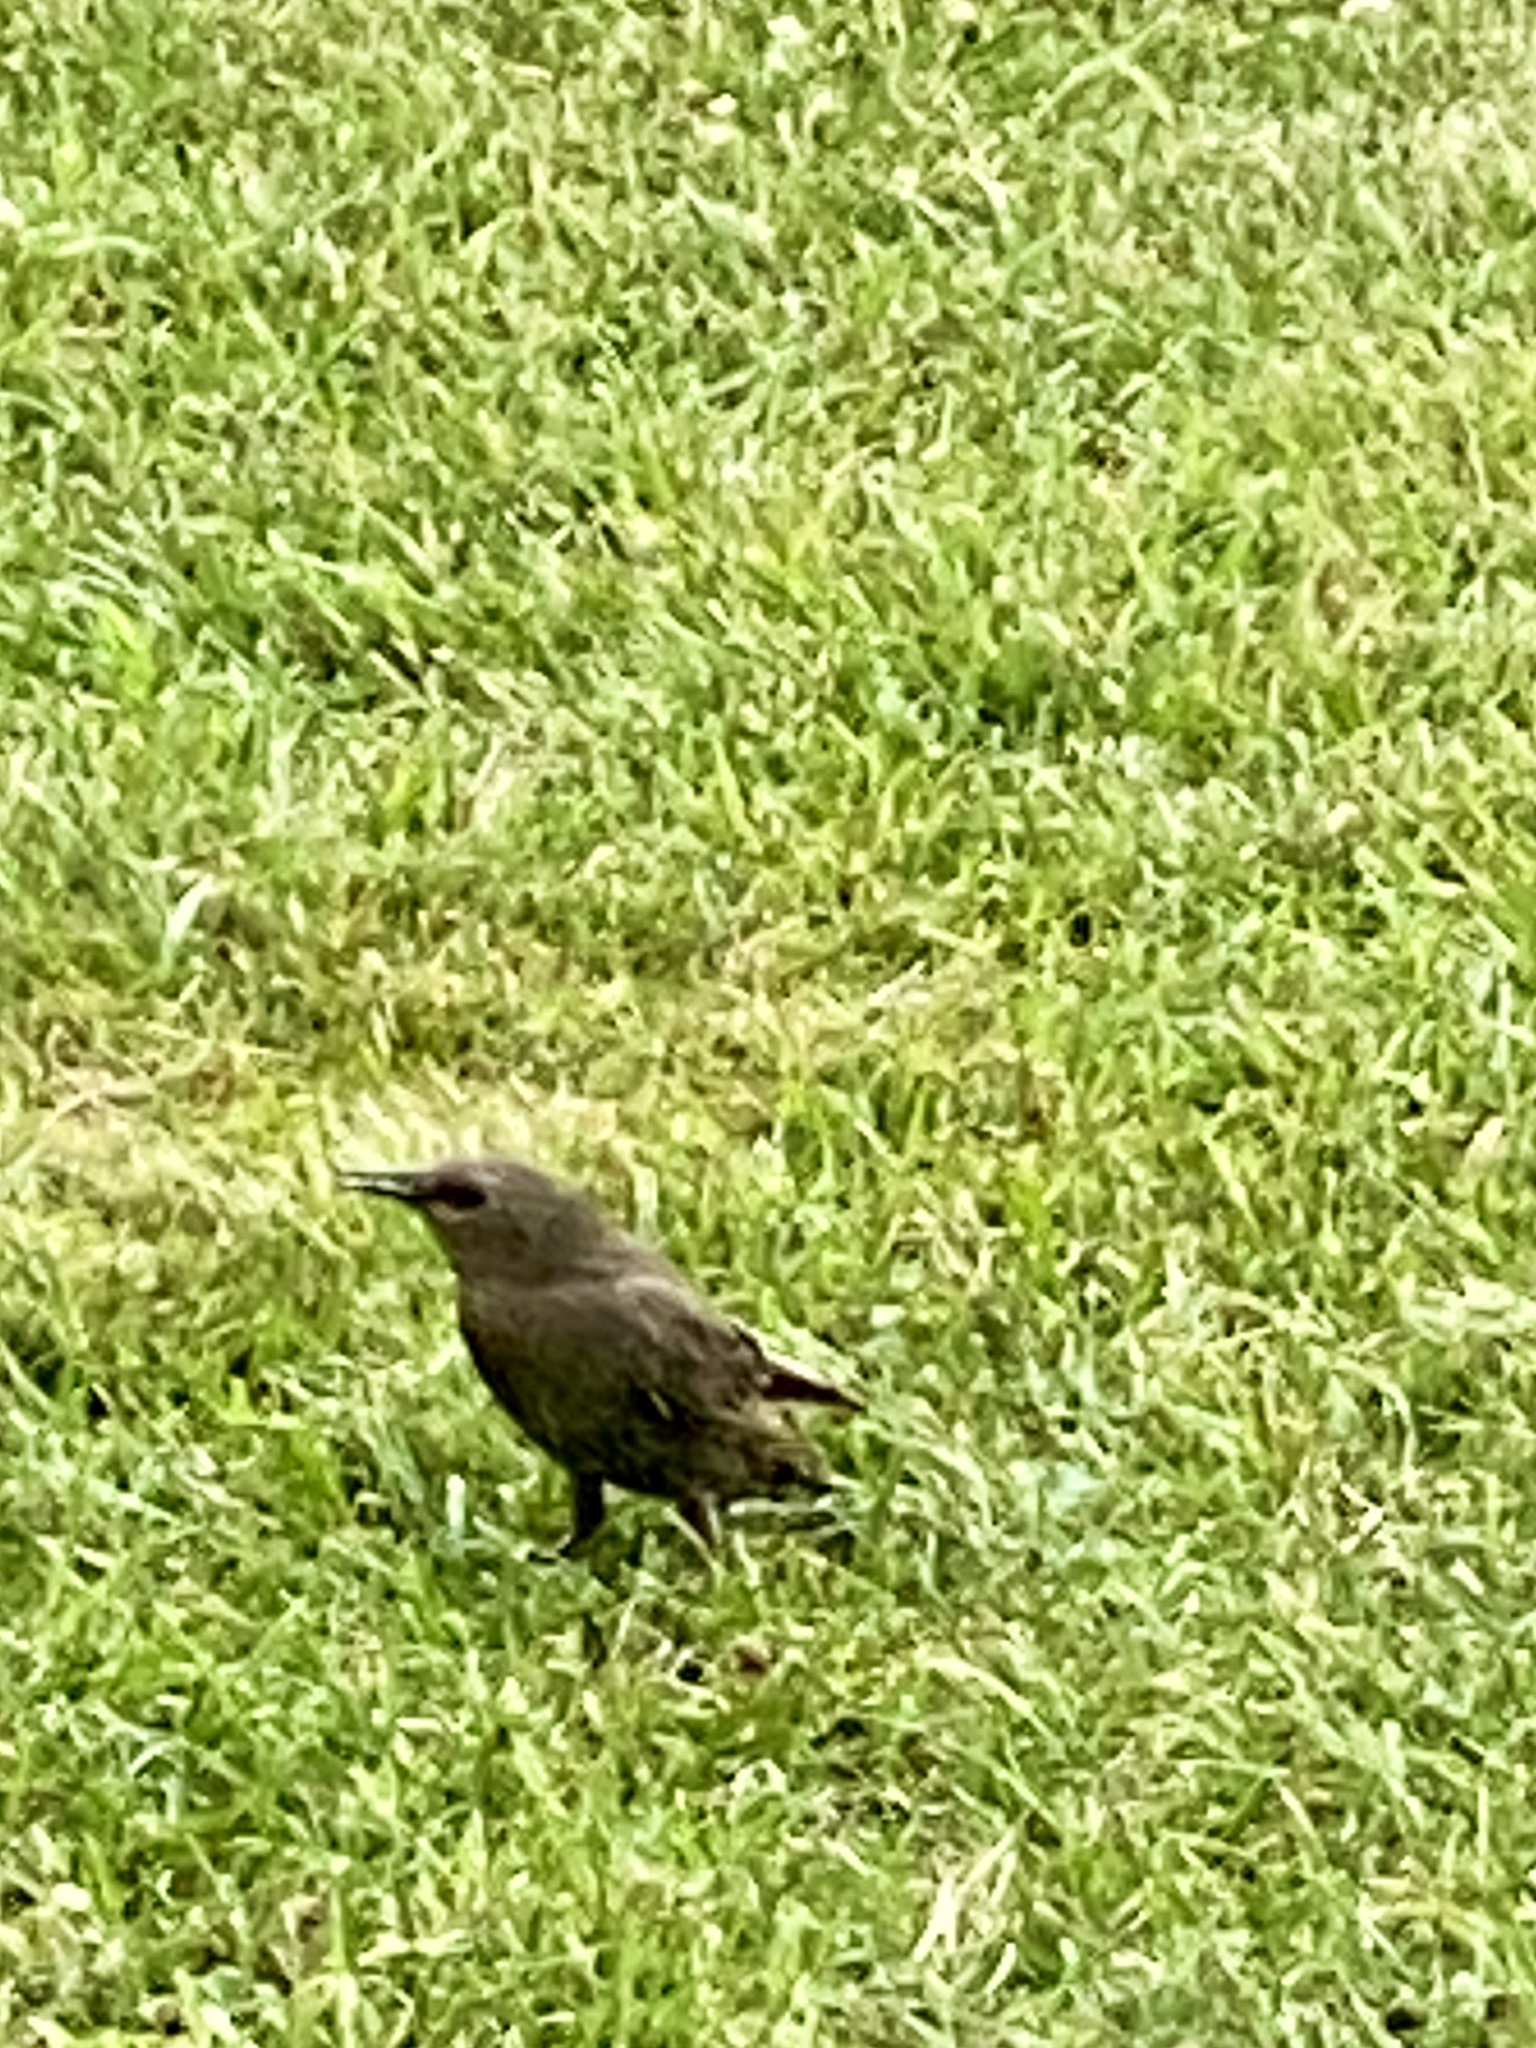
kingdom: Animalia
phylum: Chordata
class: Aves
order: Passeriformes
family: Sturnidae
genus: Sturnus
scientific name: Sturnus vulgaris
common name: Common starling
